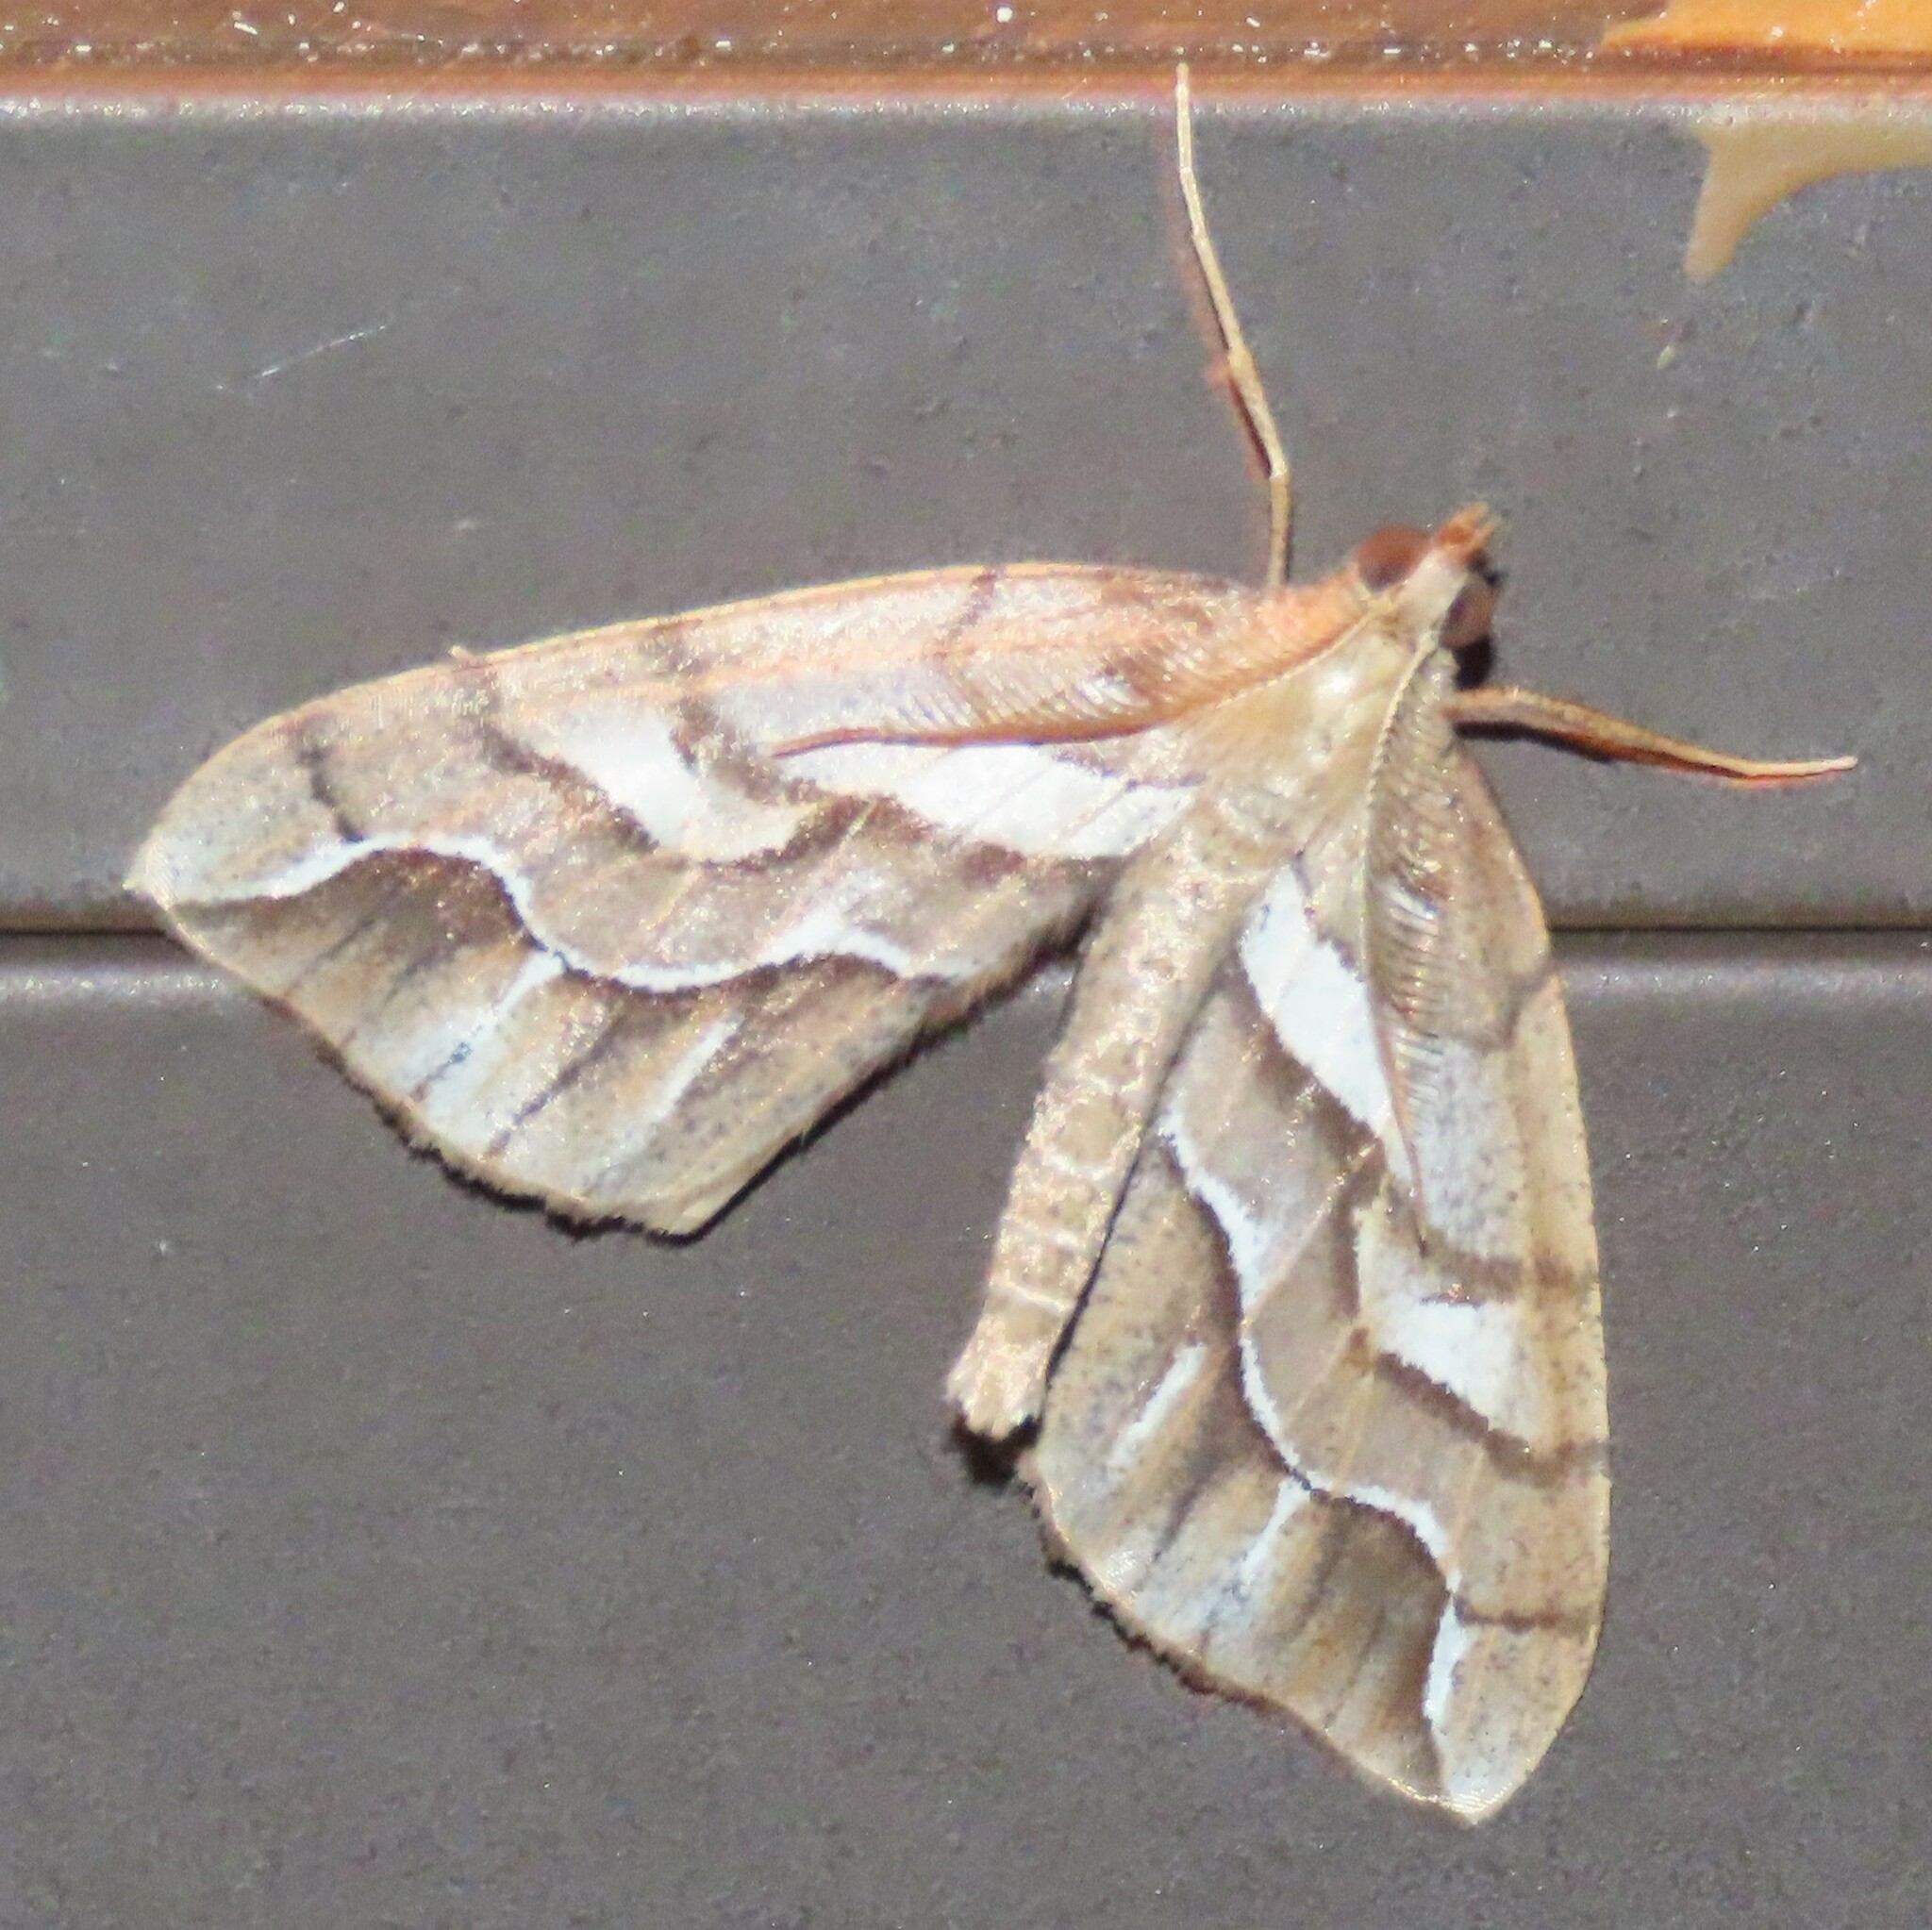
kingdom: Animalia
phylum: Arthropoda
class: Insecta
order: Lepidoptera
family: Geometridae
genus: Chalastra
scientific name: Chalastra aristarcha
